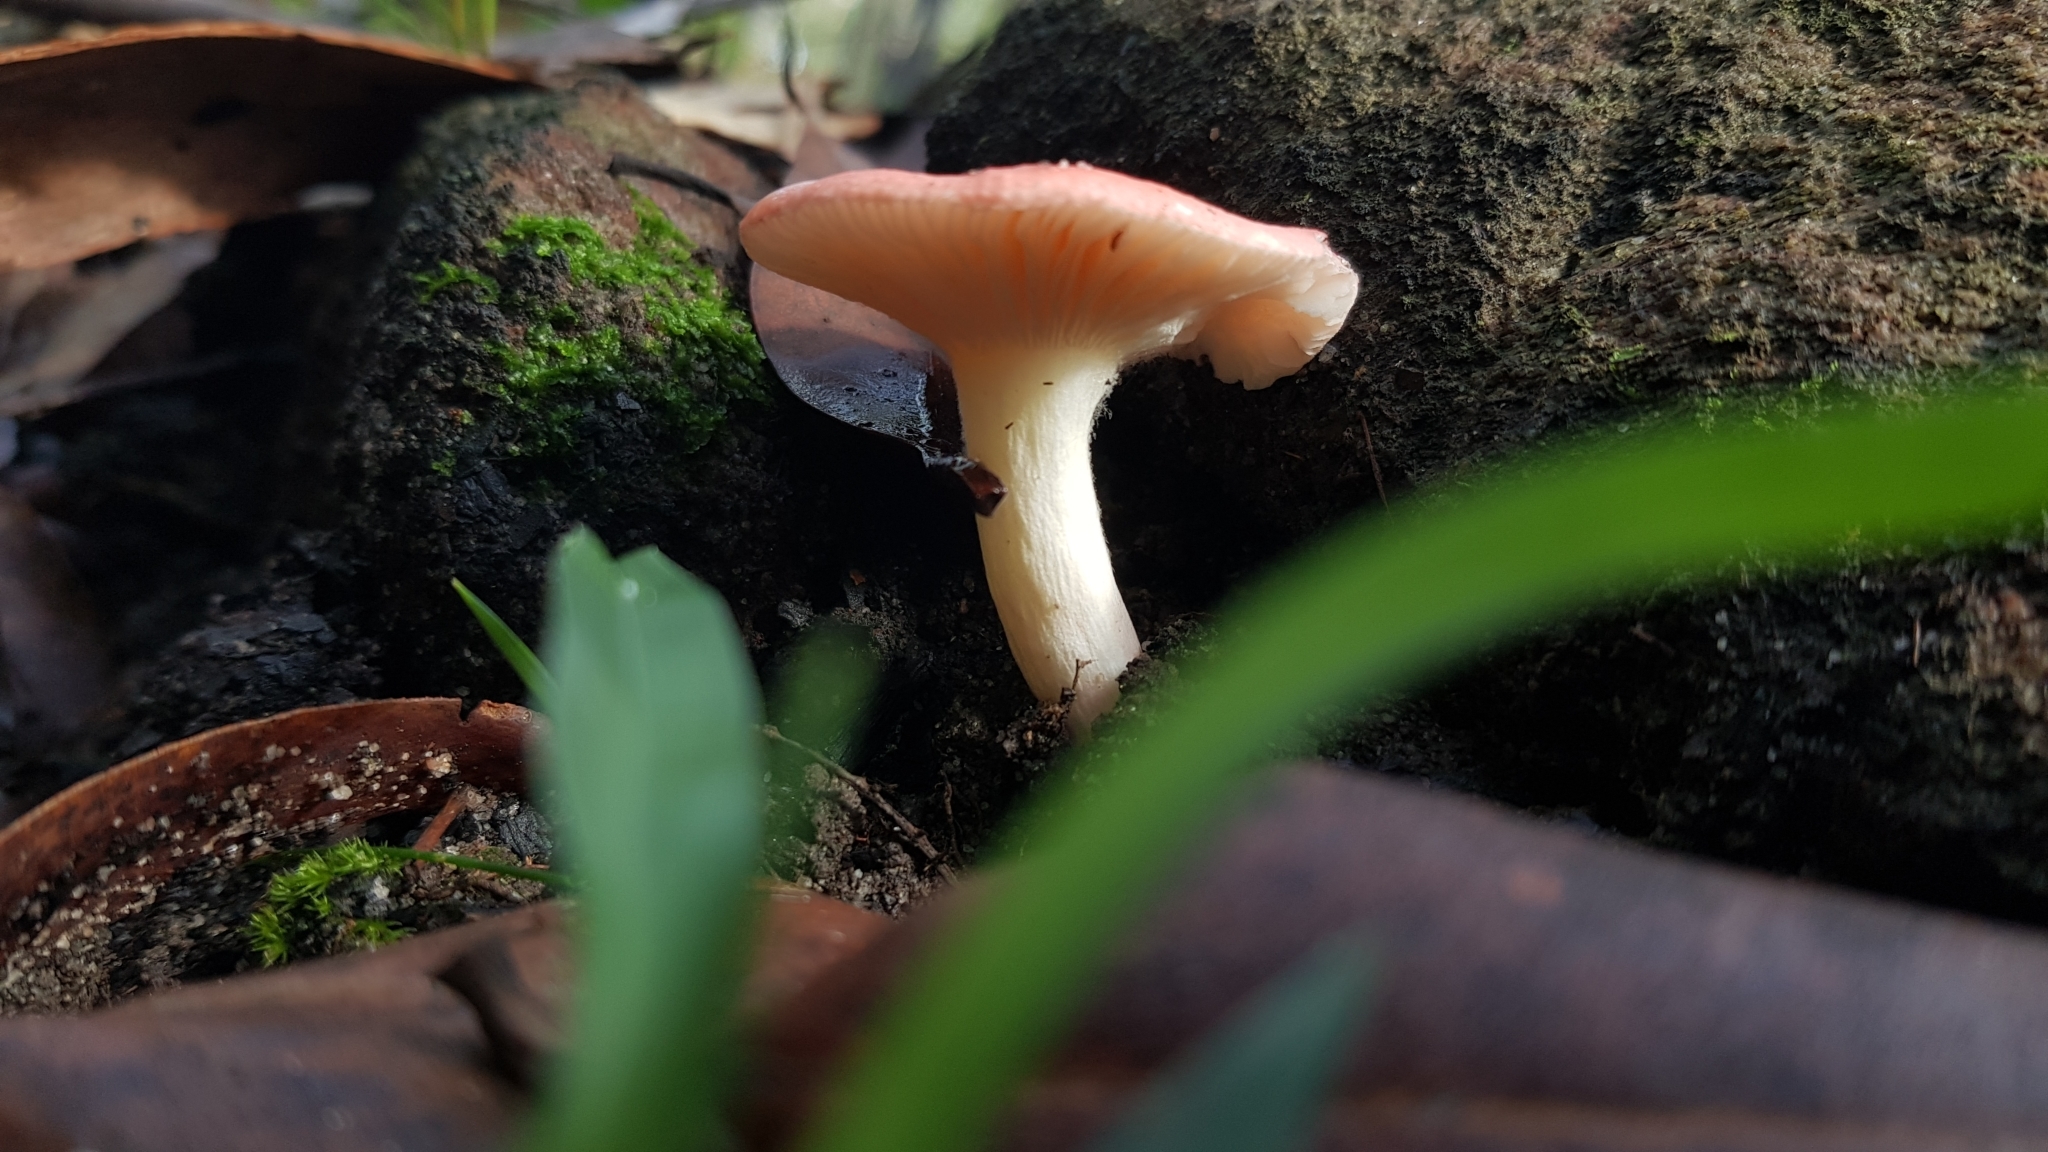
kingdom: Fungi
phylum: Basidiomycota
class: Agaricomycetes
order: Russulales
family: Russulaceae
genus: Russula
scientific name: Russula persanguinea
